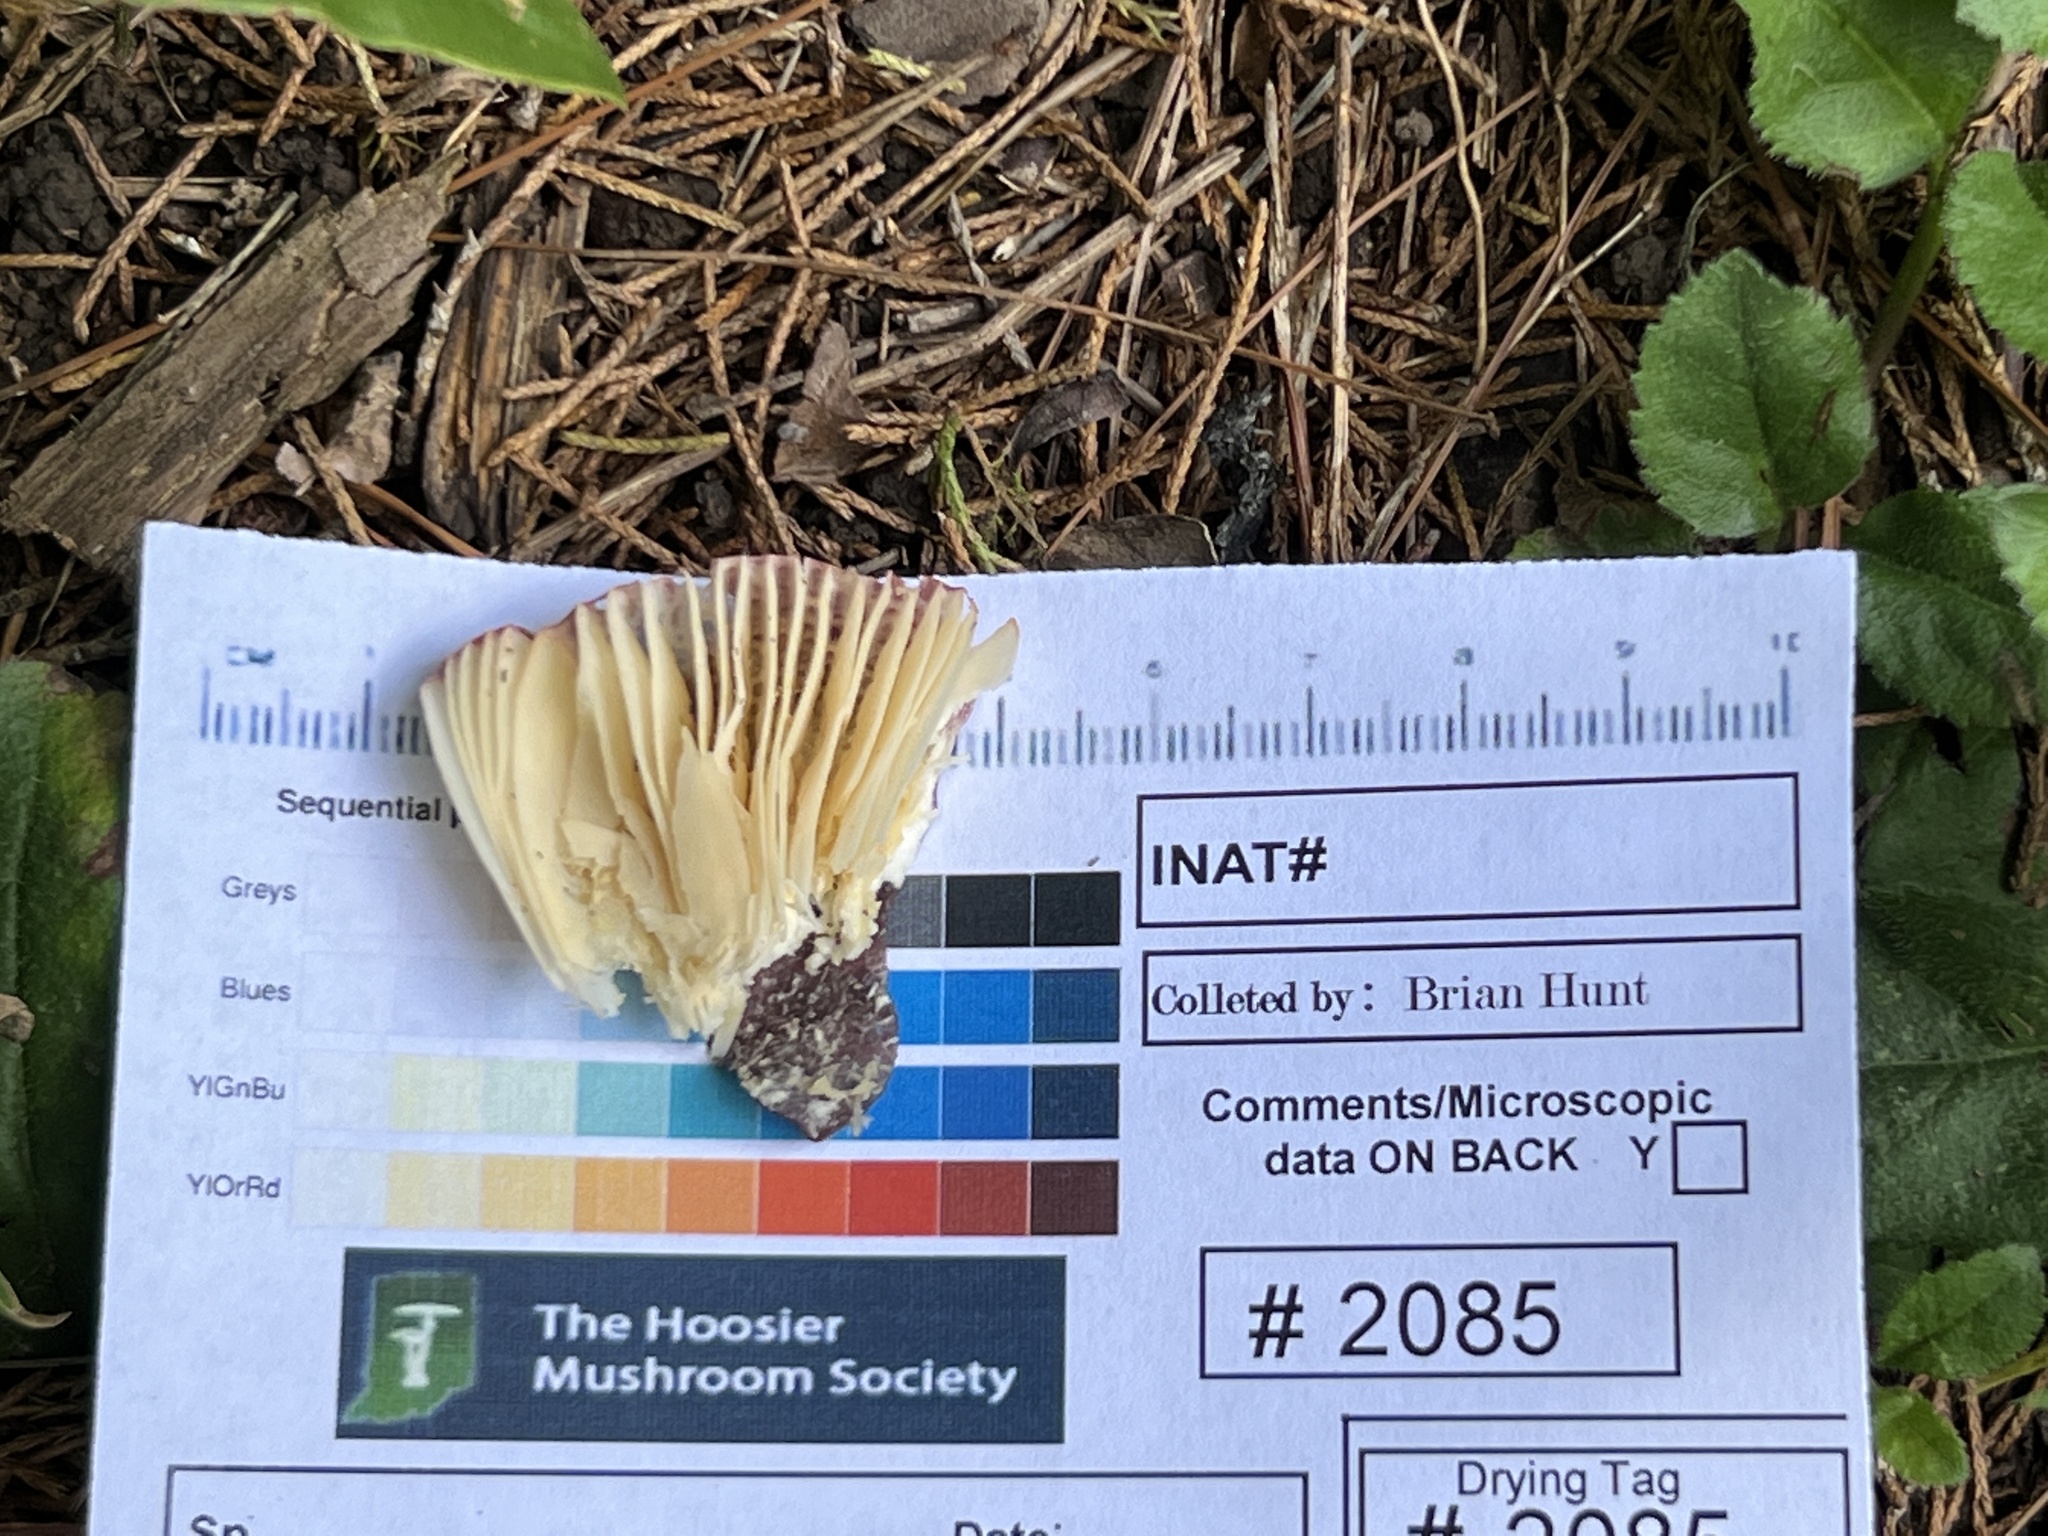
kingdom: Fungi
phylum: Basidiomycota
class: Agaricomycetes
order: Russulales
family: Russulaceae
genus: Russula
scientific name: Russula mariae
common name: Purple-bloom russula
